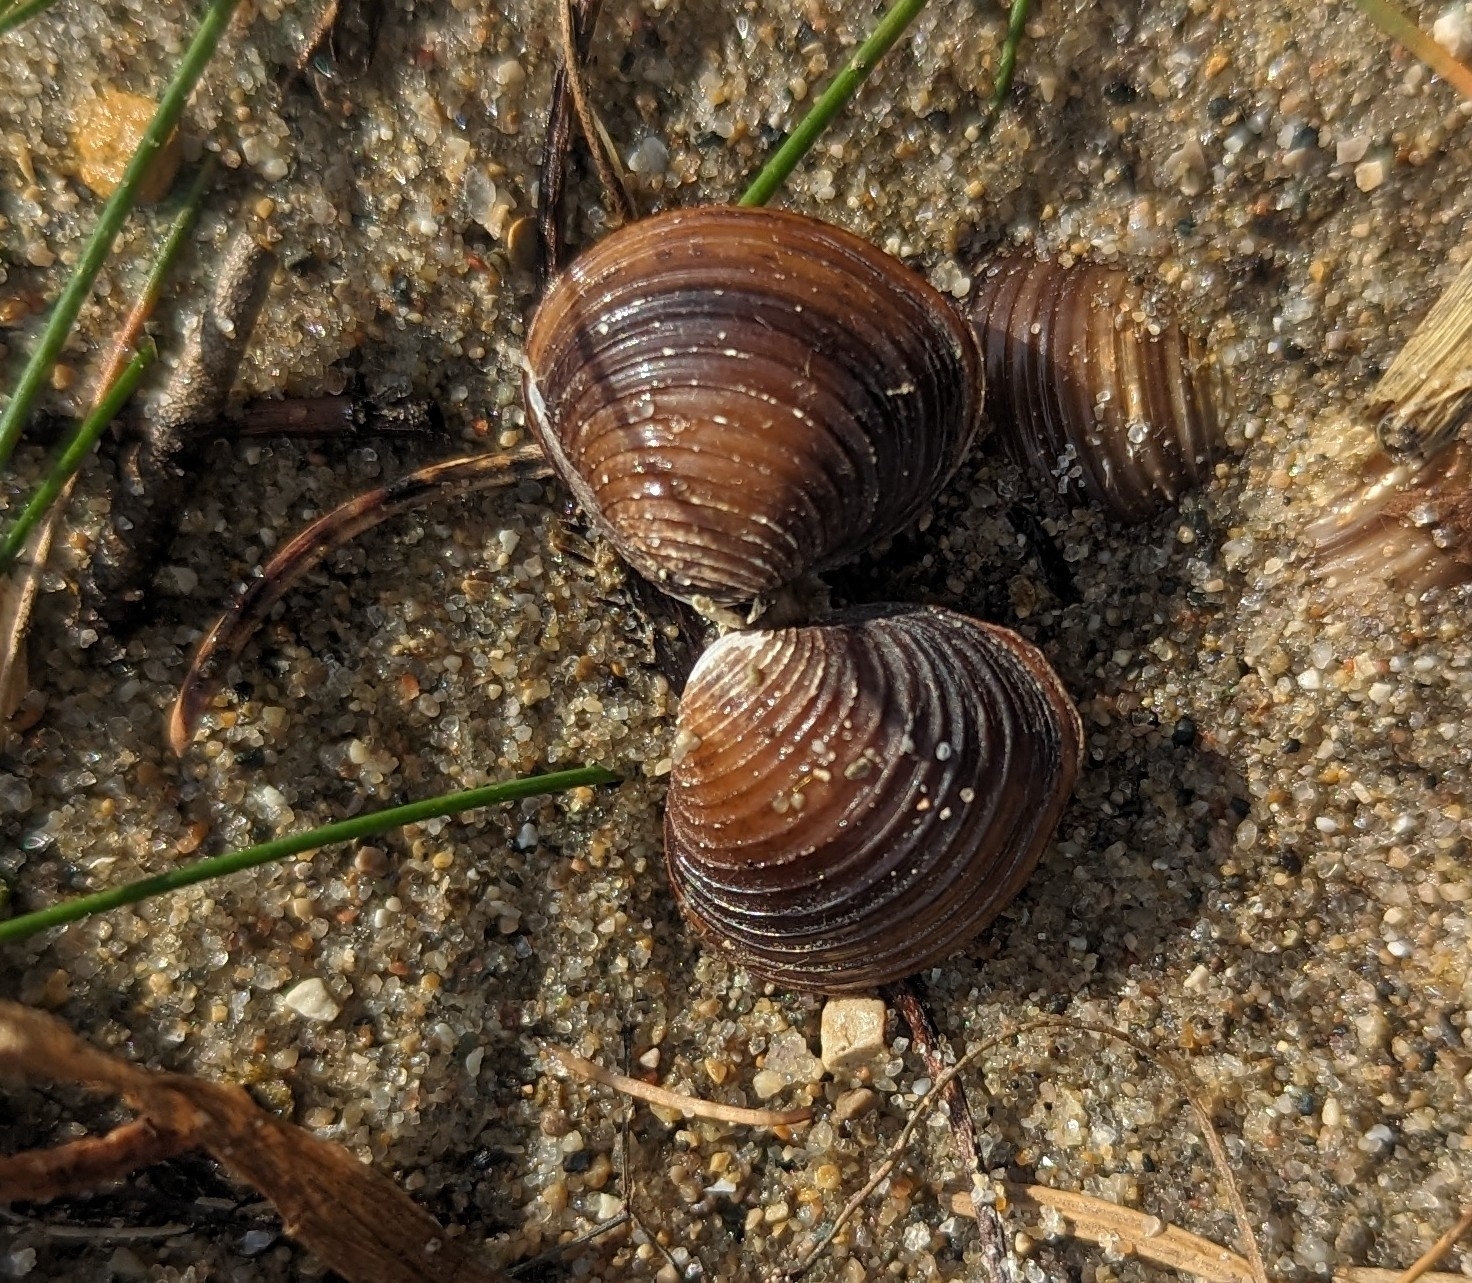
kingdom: Animalia
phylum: Mollusca
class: Bivalvia
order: Venerida
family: Cyrenidae
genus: Corbicula
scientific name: Corbicula fluminea
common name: Asian clam
